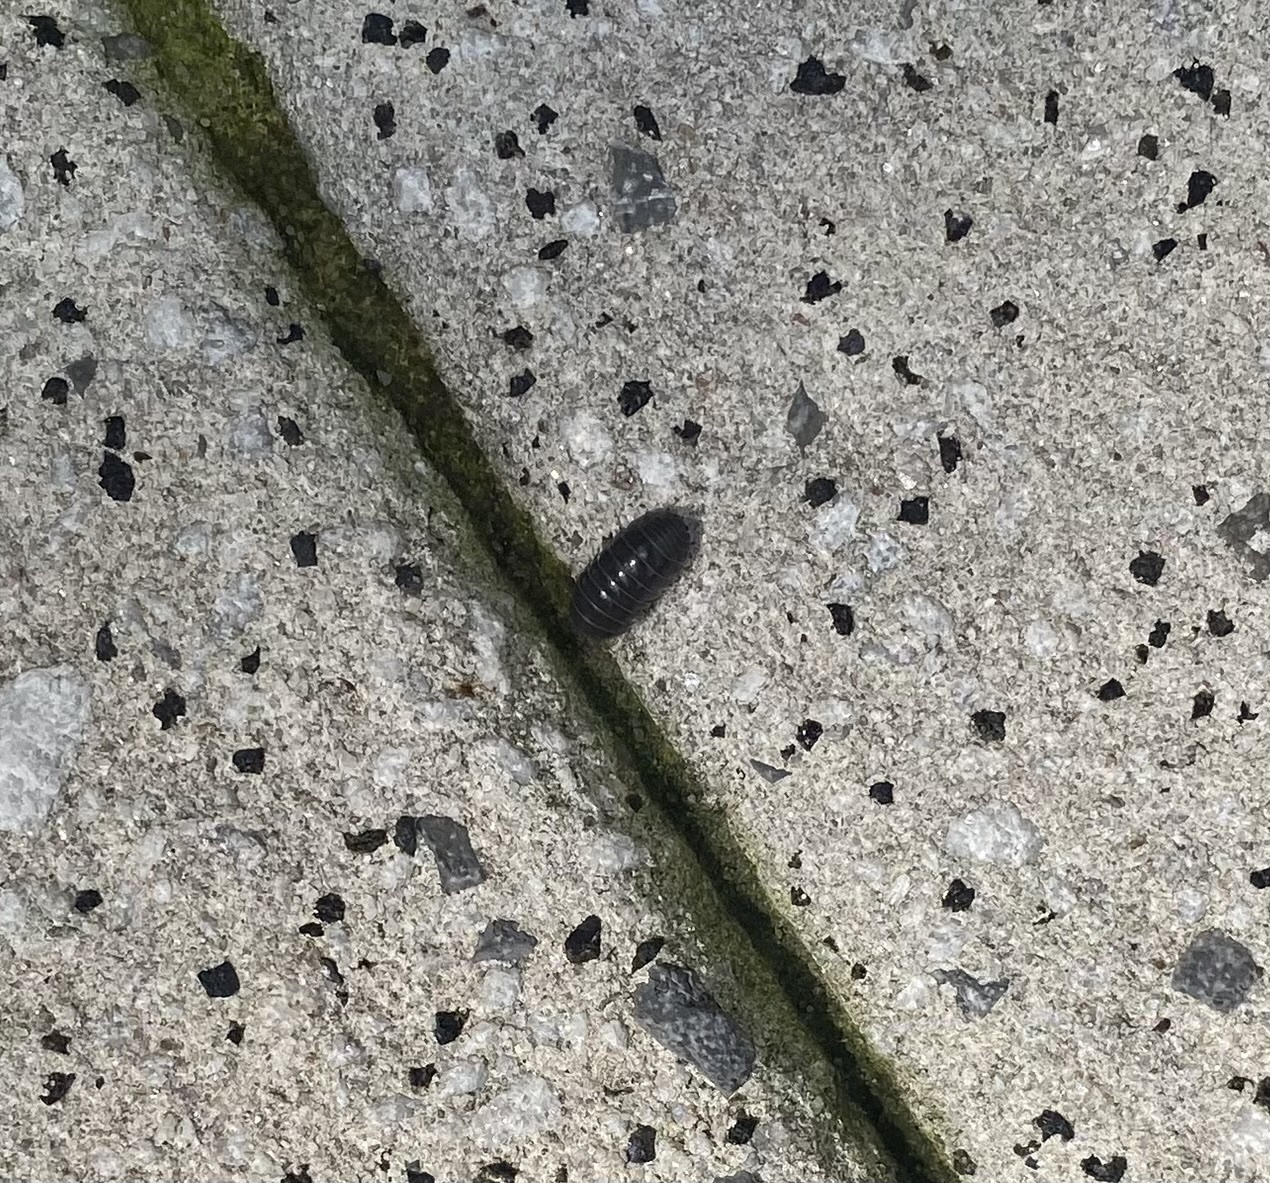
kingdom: Animalia
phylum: Arthropoda
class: Malacostraca
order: Isopoda
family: Armadillidiidae
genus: Armadillidium
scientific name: Armadillidium vulgare
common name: Common pill woodlouse
